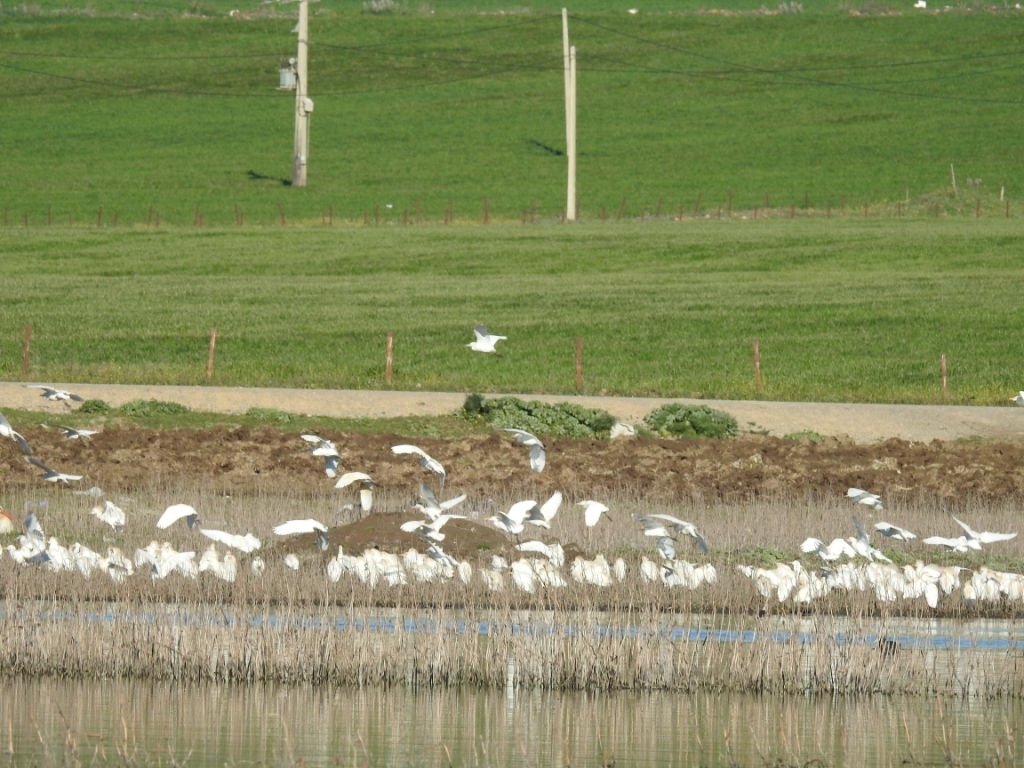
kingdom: Animalia
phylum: Chordata
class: Aves
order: Pelecaniformes
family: Ardeidae
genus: Bubulcus
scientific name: Bubulcus ibis
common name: Cattle egret
